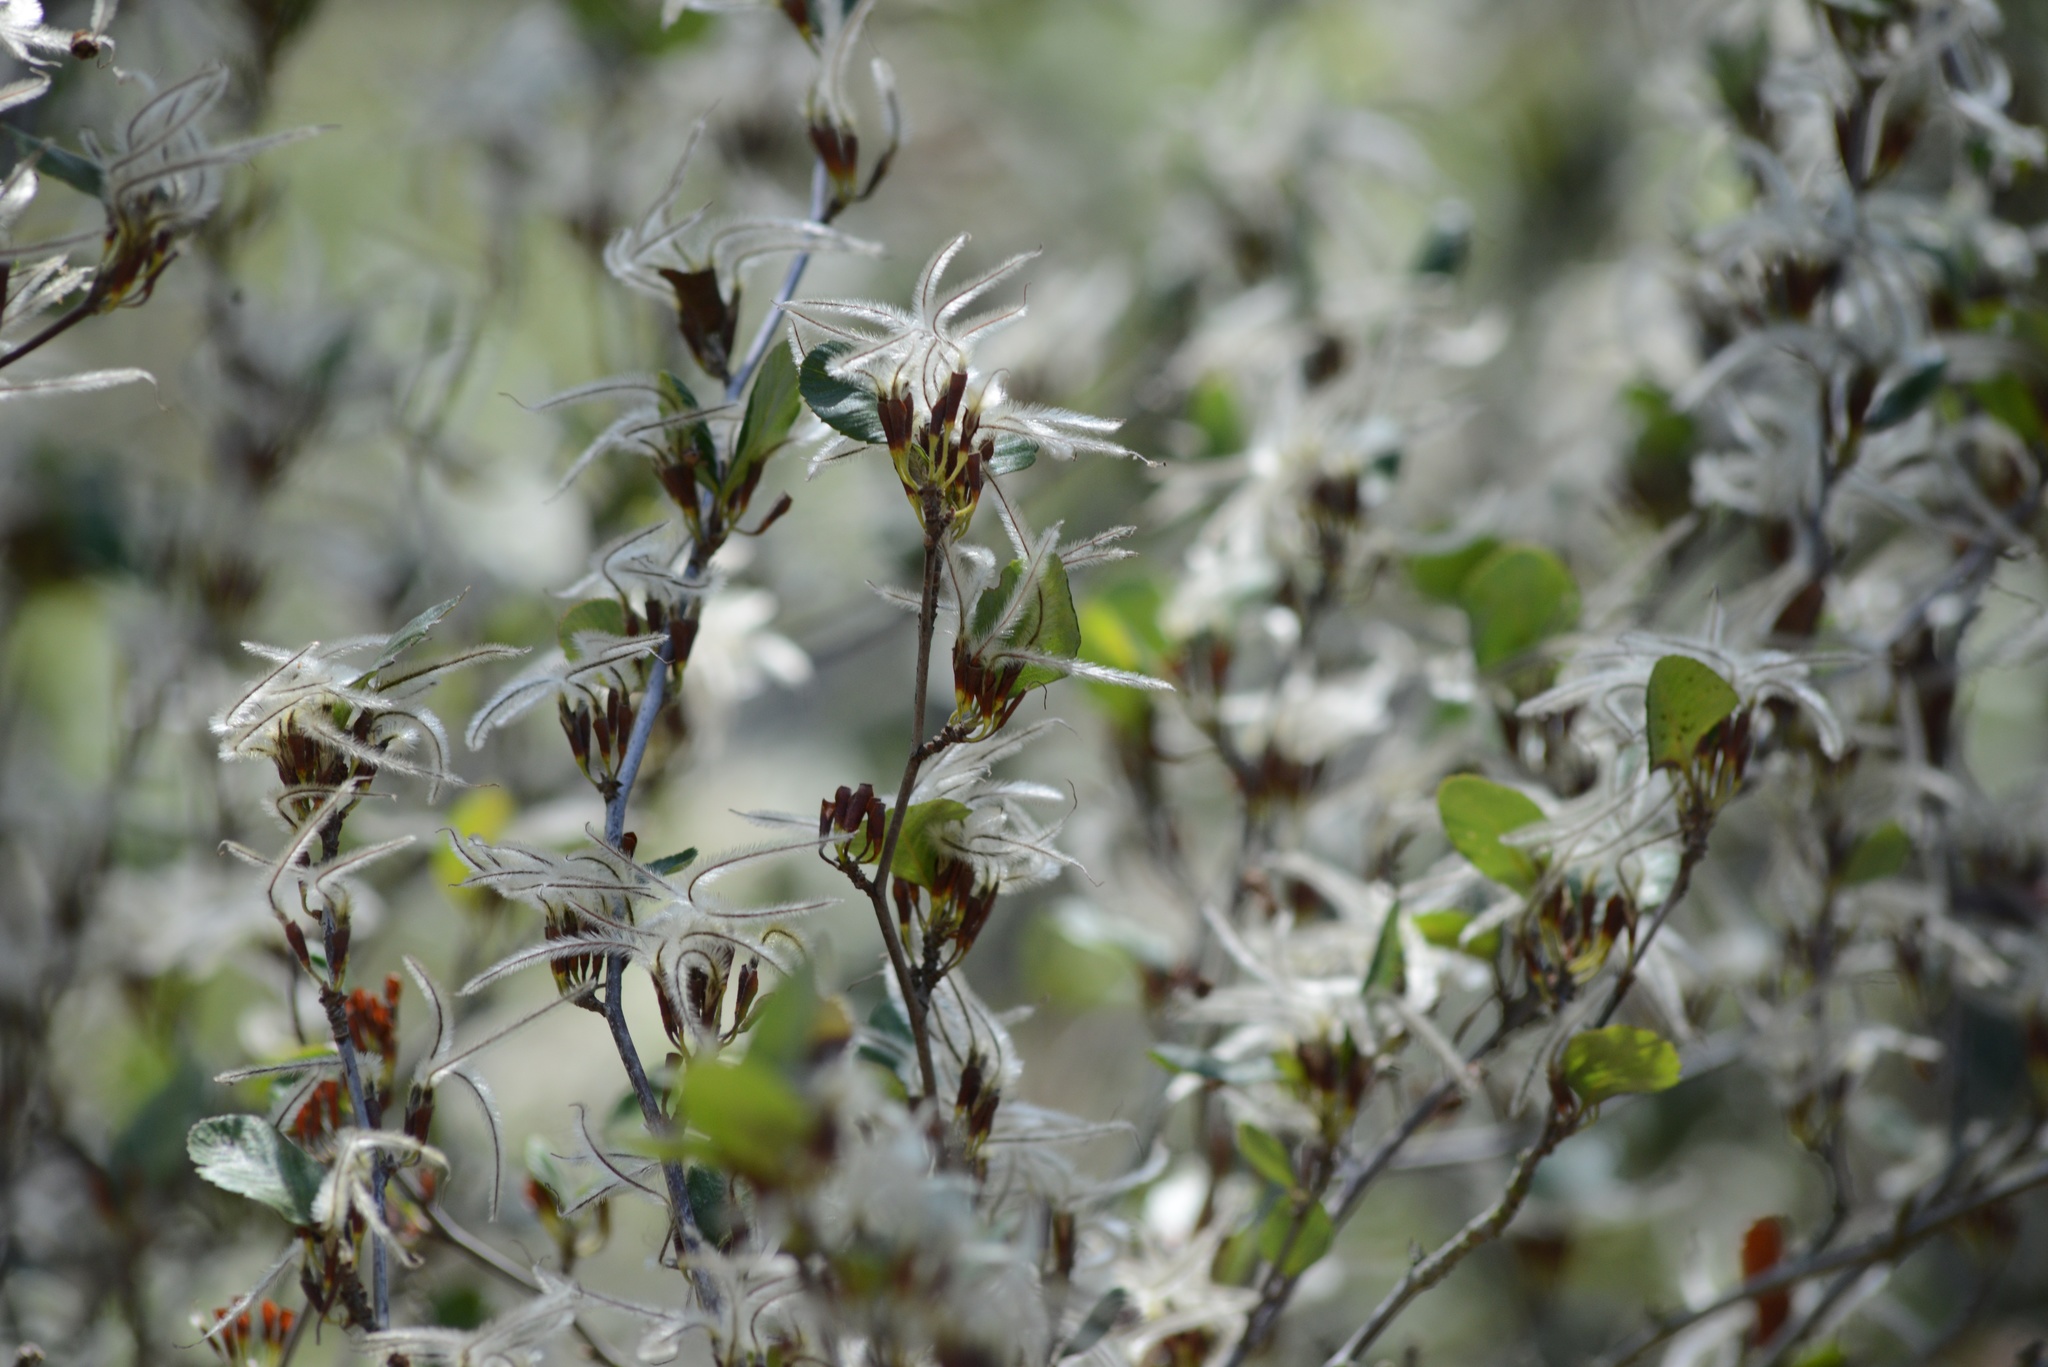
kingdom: Plantae
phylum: Tracheophyta
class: Magnoliopsida
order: Rosales
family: Rosaceae
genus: Cercocarpus
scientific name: Cercocarpus betuloides
